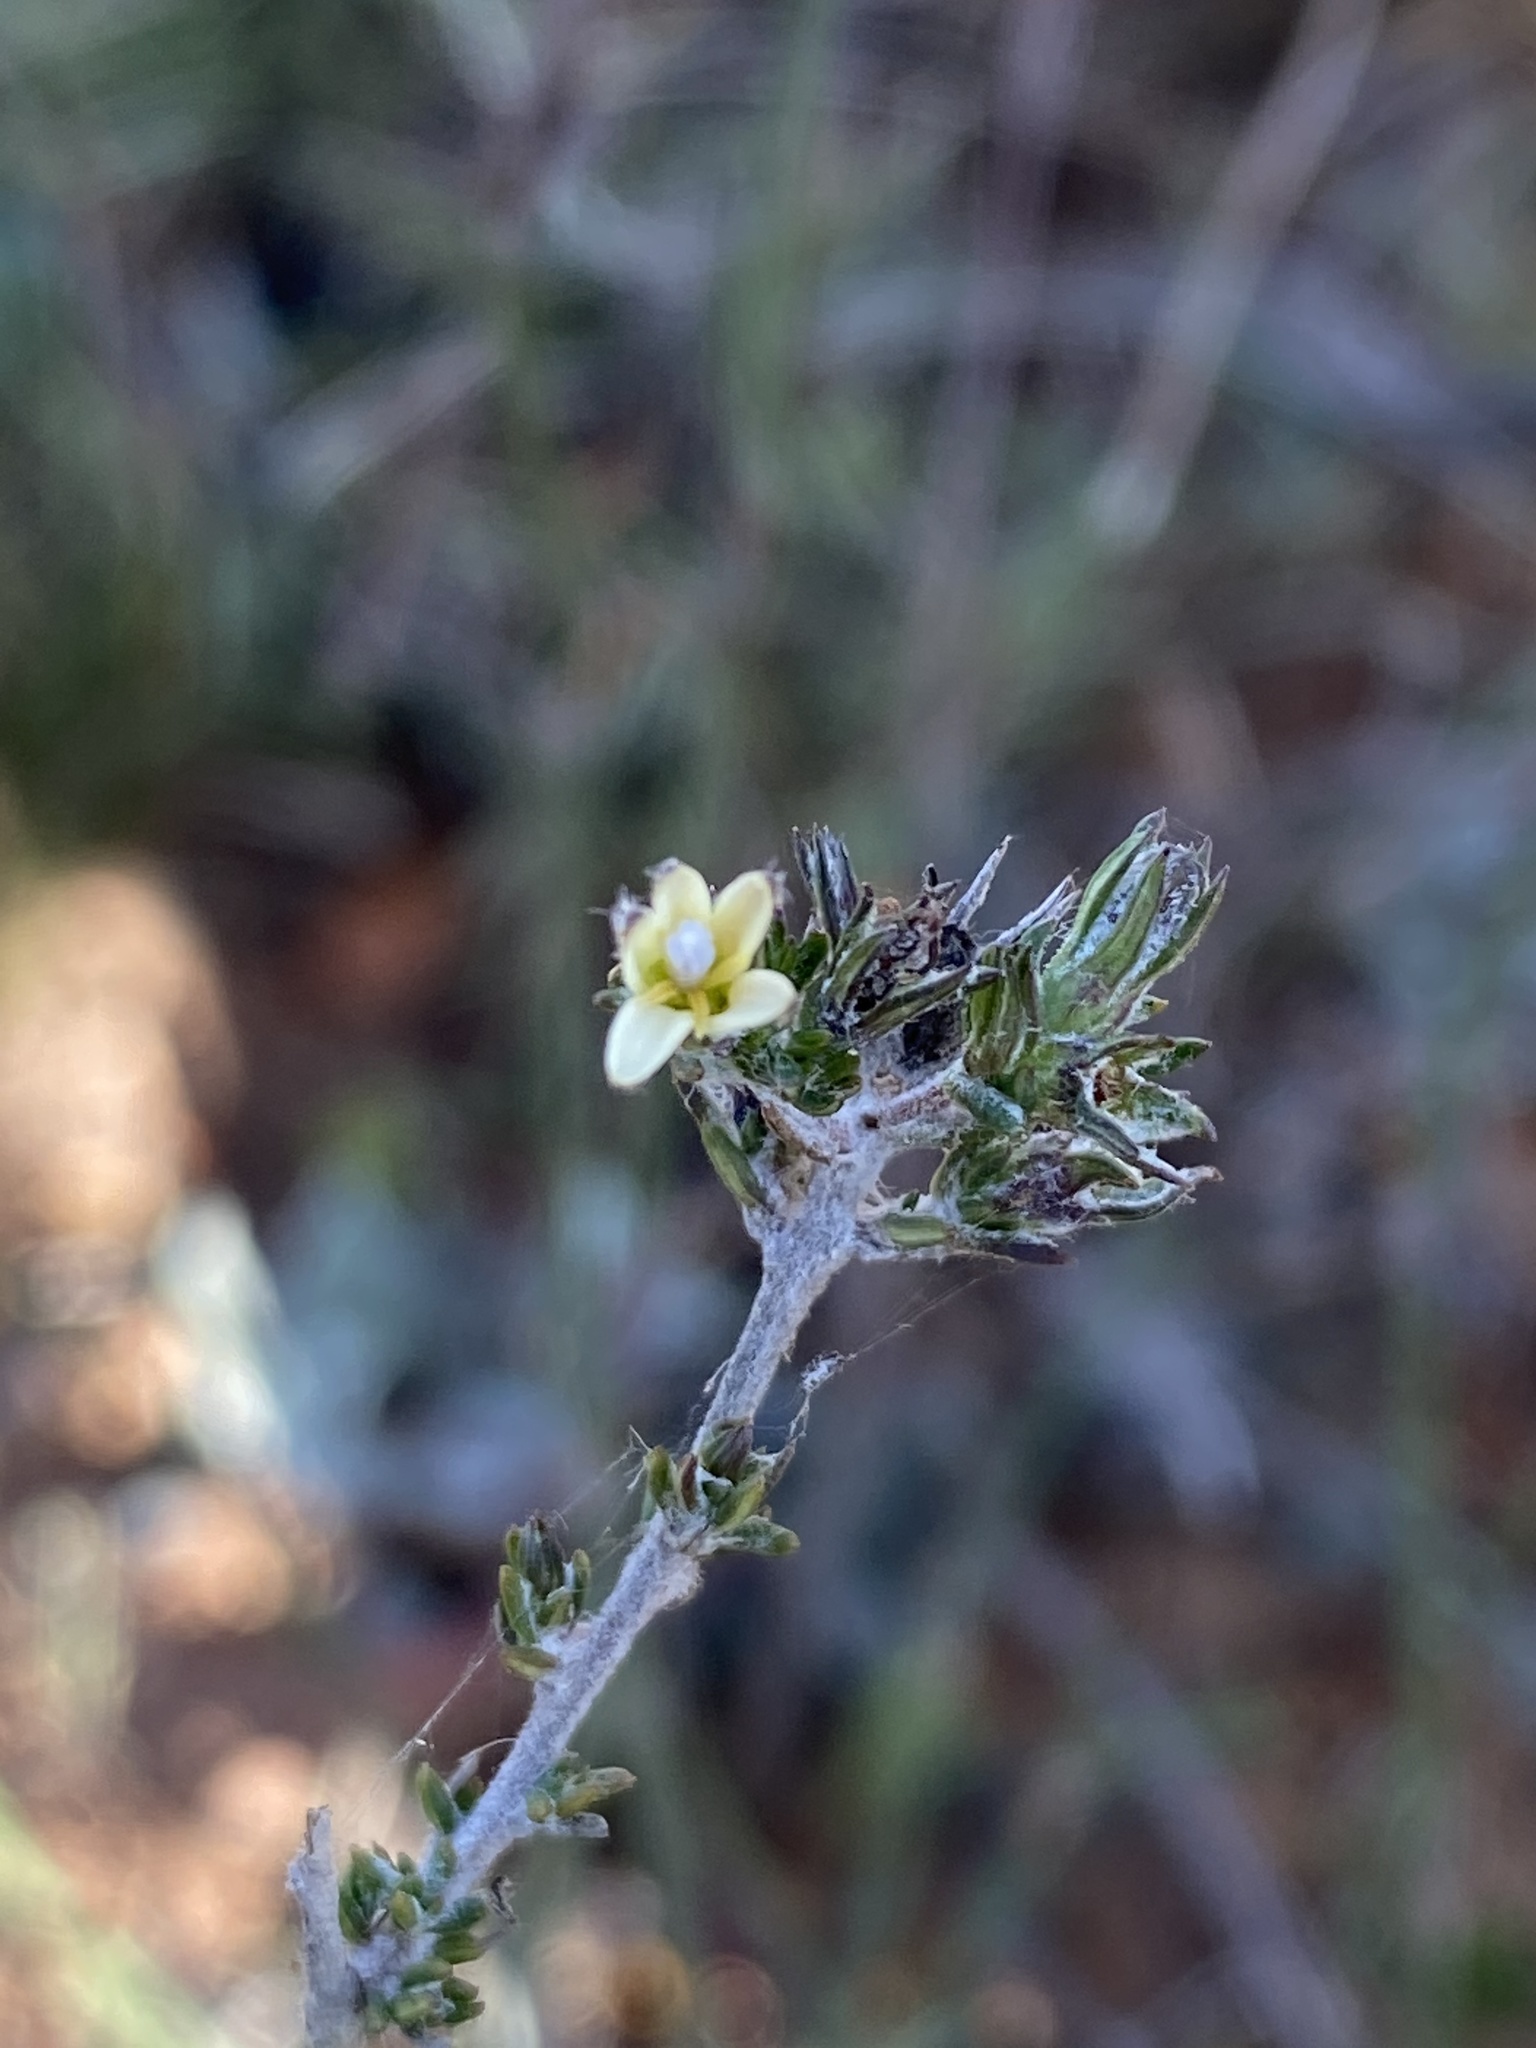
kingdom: Plantae
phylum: Tracheophyta
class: Magnoliopsida
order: Asterales
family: Campanulaceae
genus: Wahlenbergia
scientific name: Wahlenbergia cinerea
